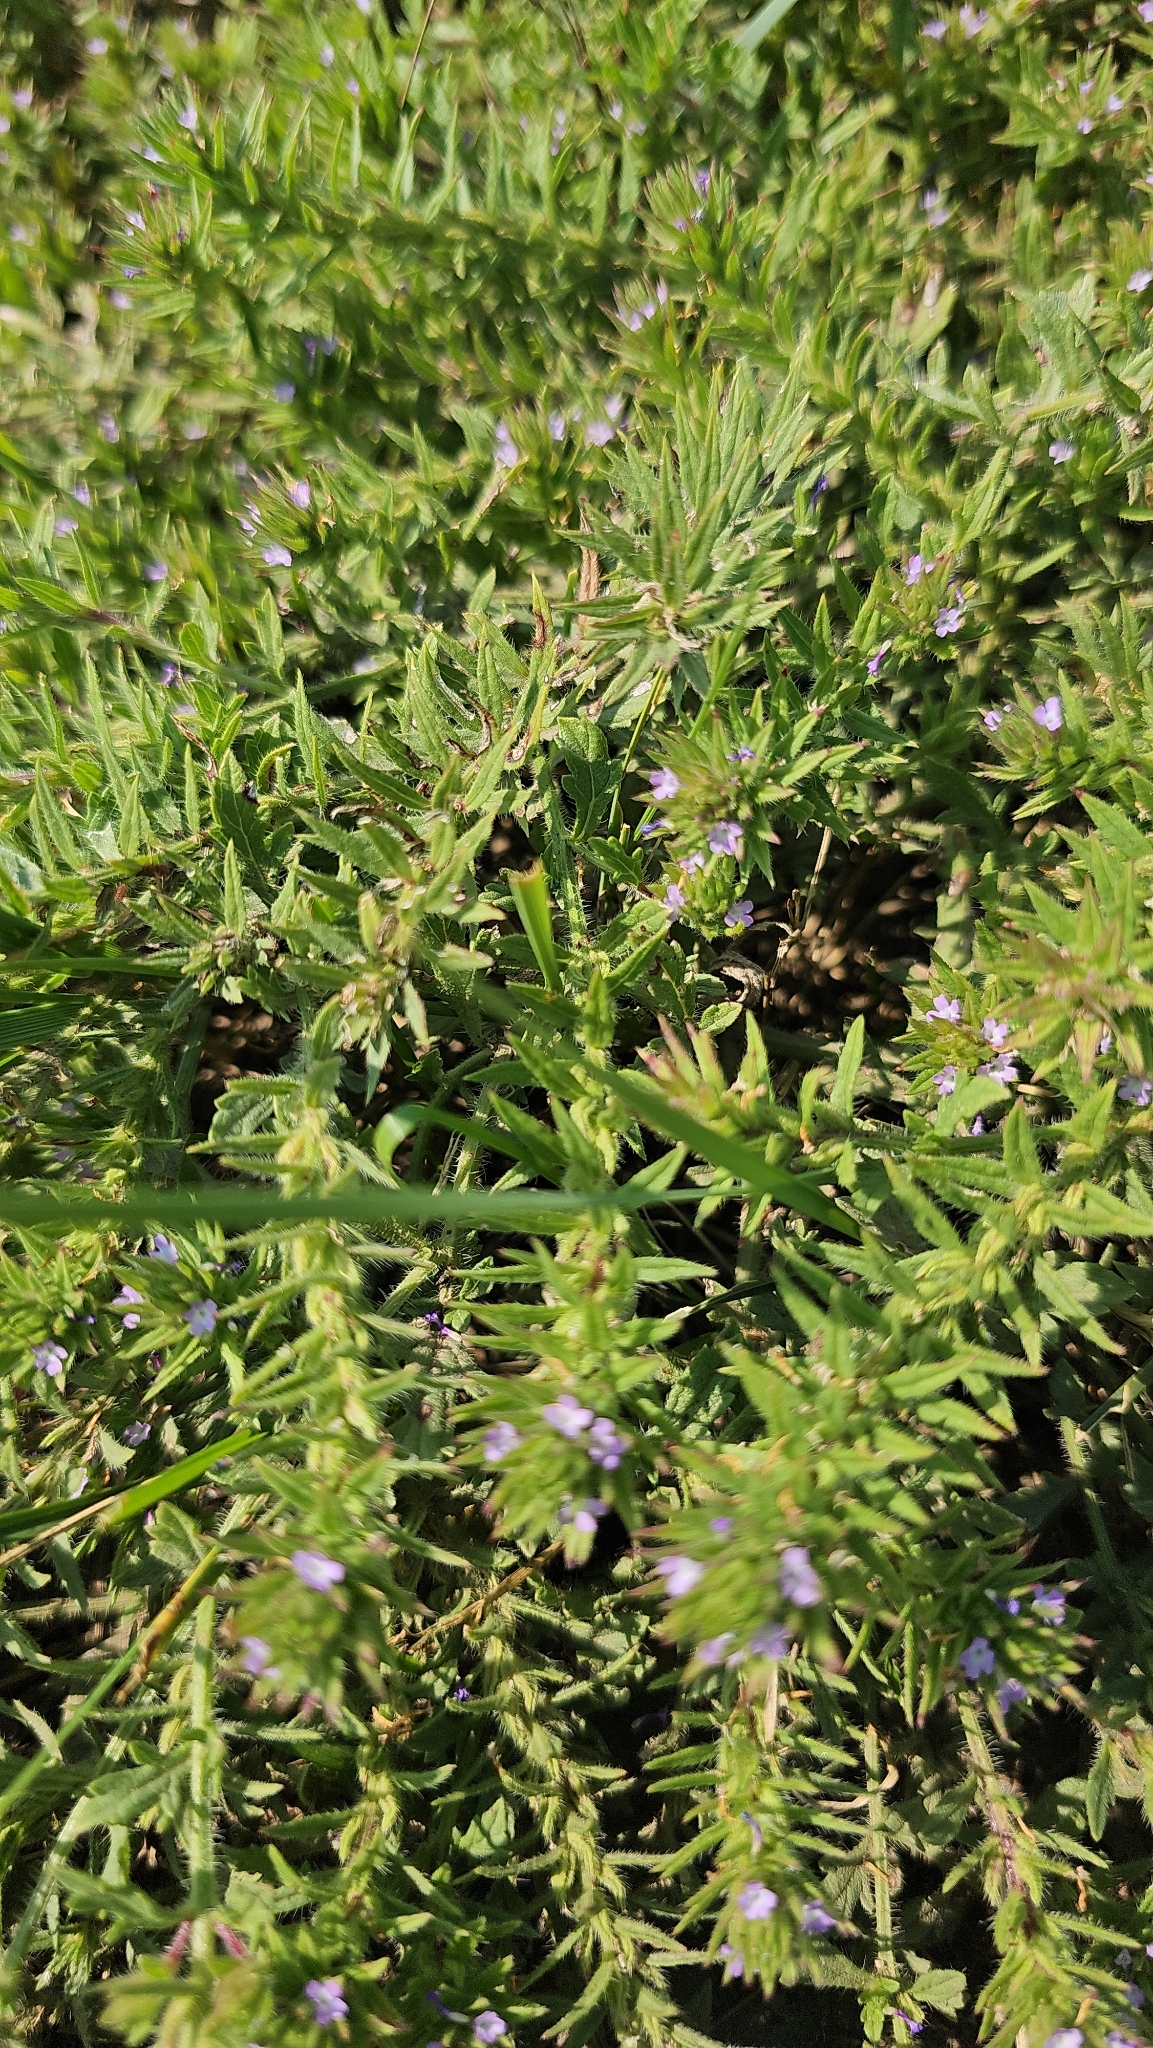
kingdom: Plantae
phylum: Tracheophyta
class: Magnoliopsida
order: Lamiales
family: Verbenaceae
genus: Verbena
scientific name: Verbena bracteata
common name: Bracted vervain
